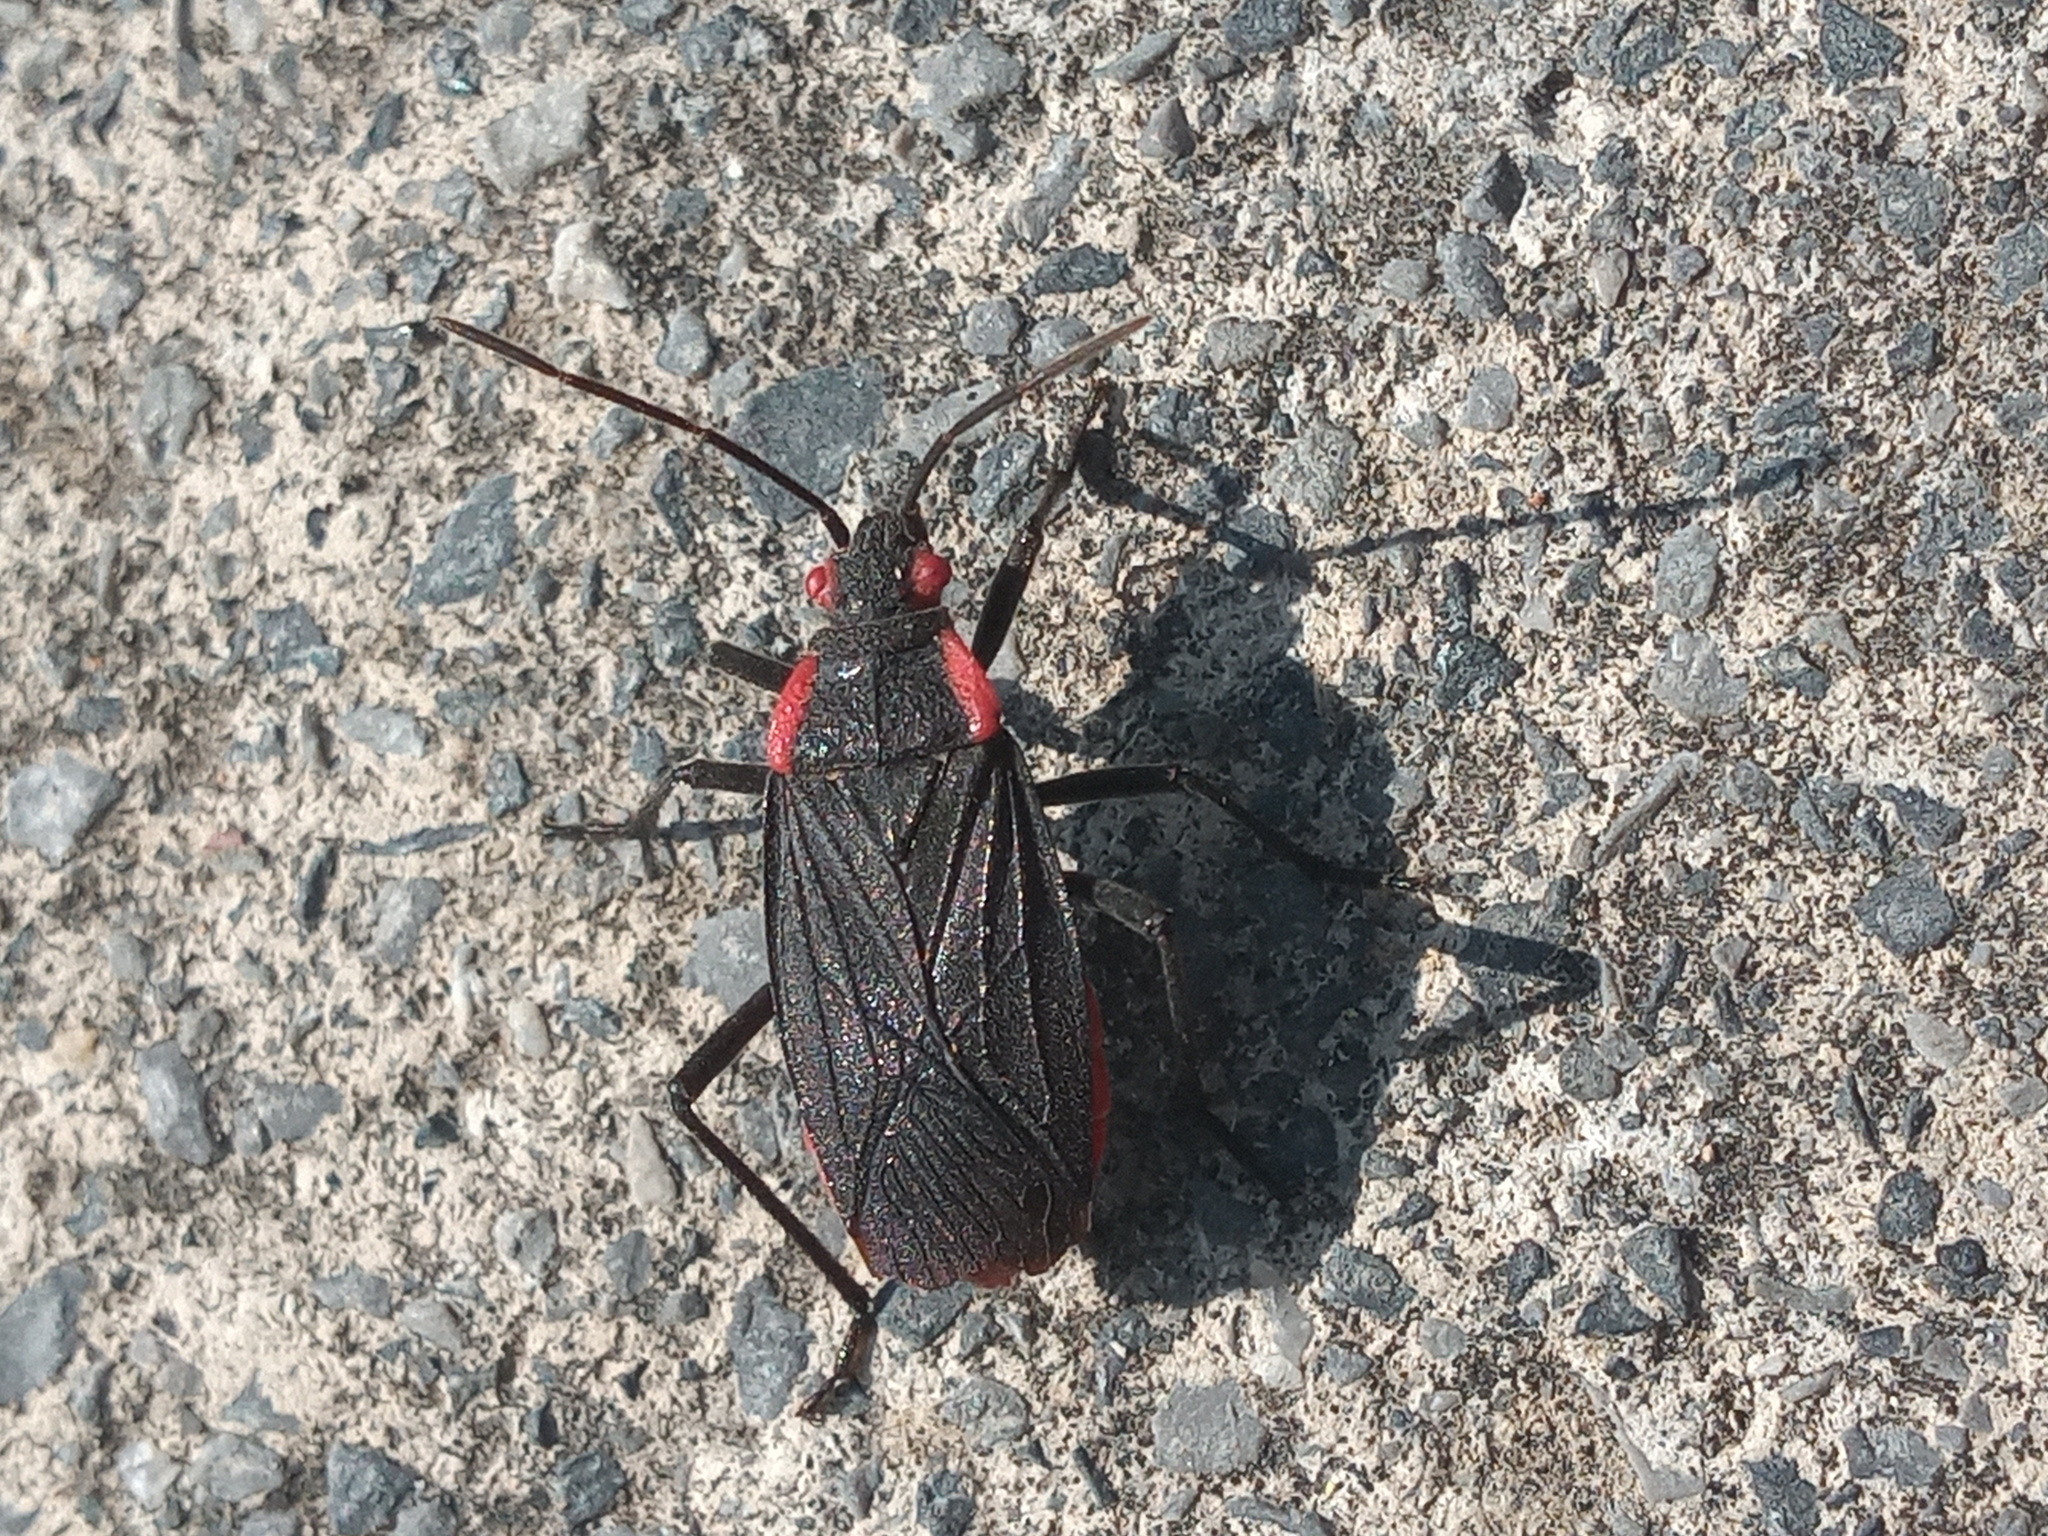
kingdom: Animalia
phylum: Arthropoda
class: Insecta
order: Hemiptera
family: Rhopalidae
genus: Jadera
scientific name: Jadera haematoloma
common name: Red-shouldered bug
